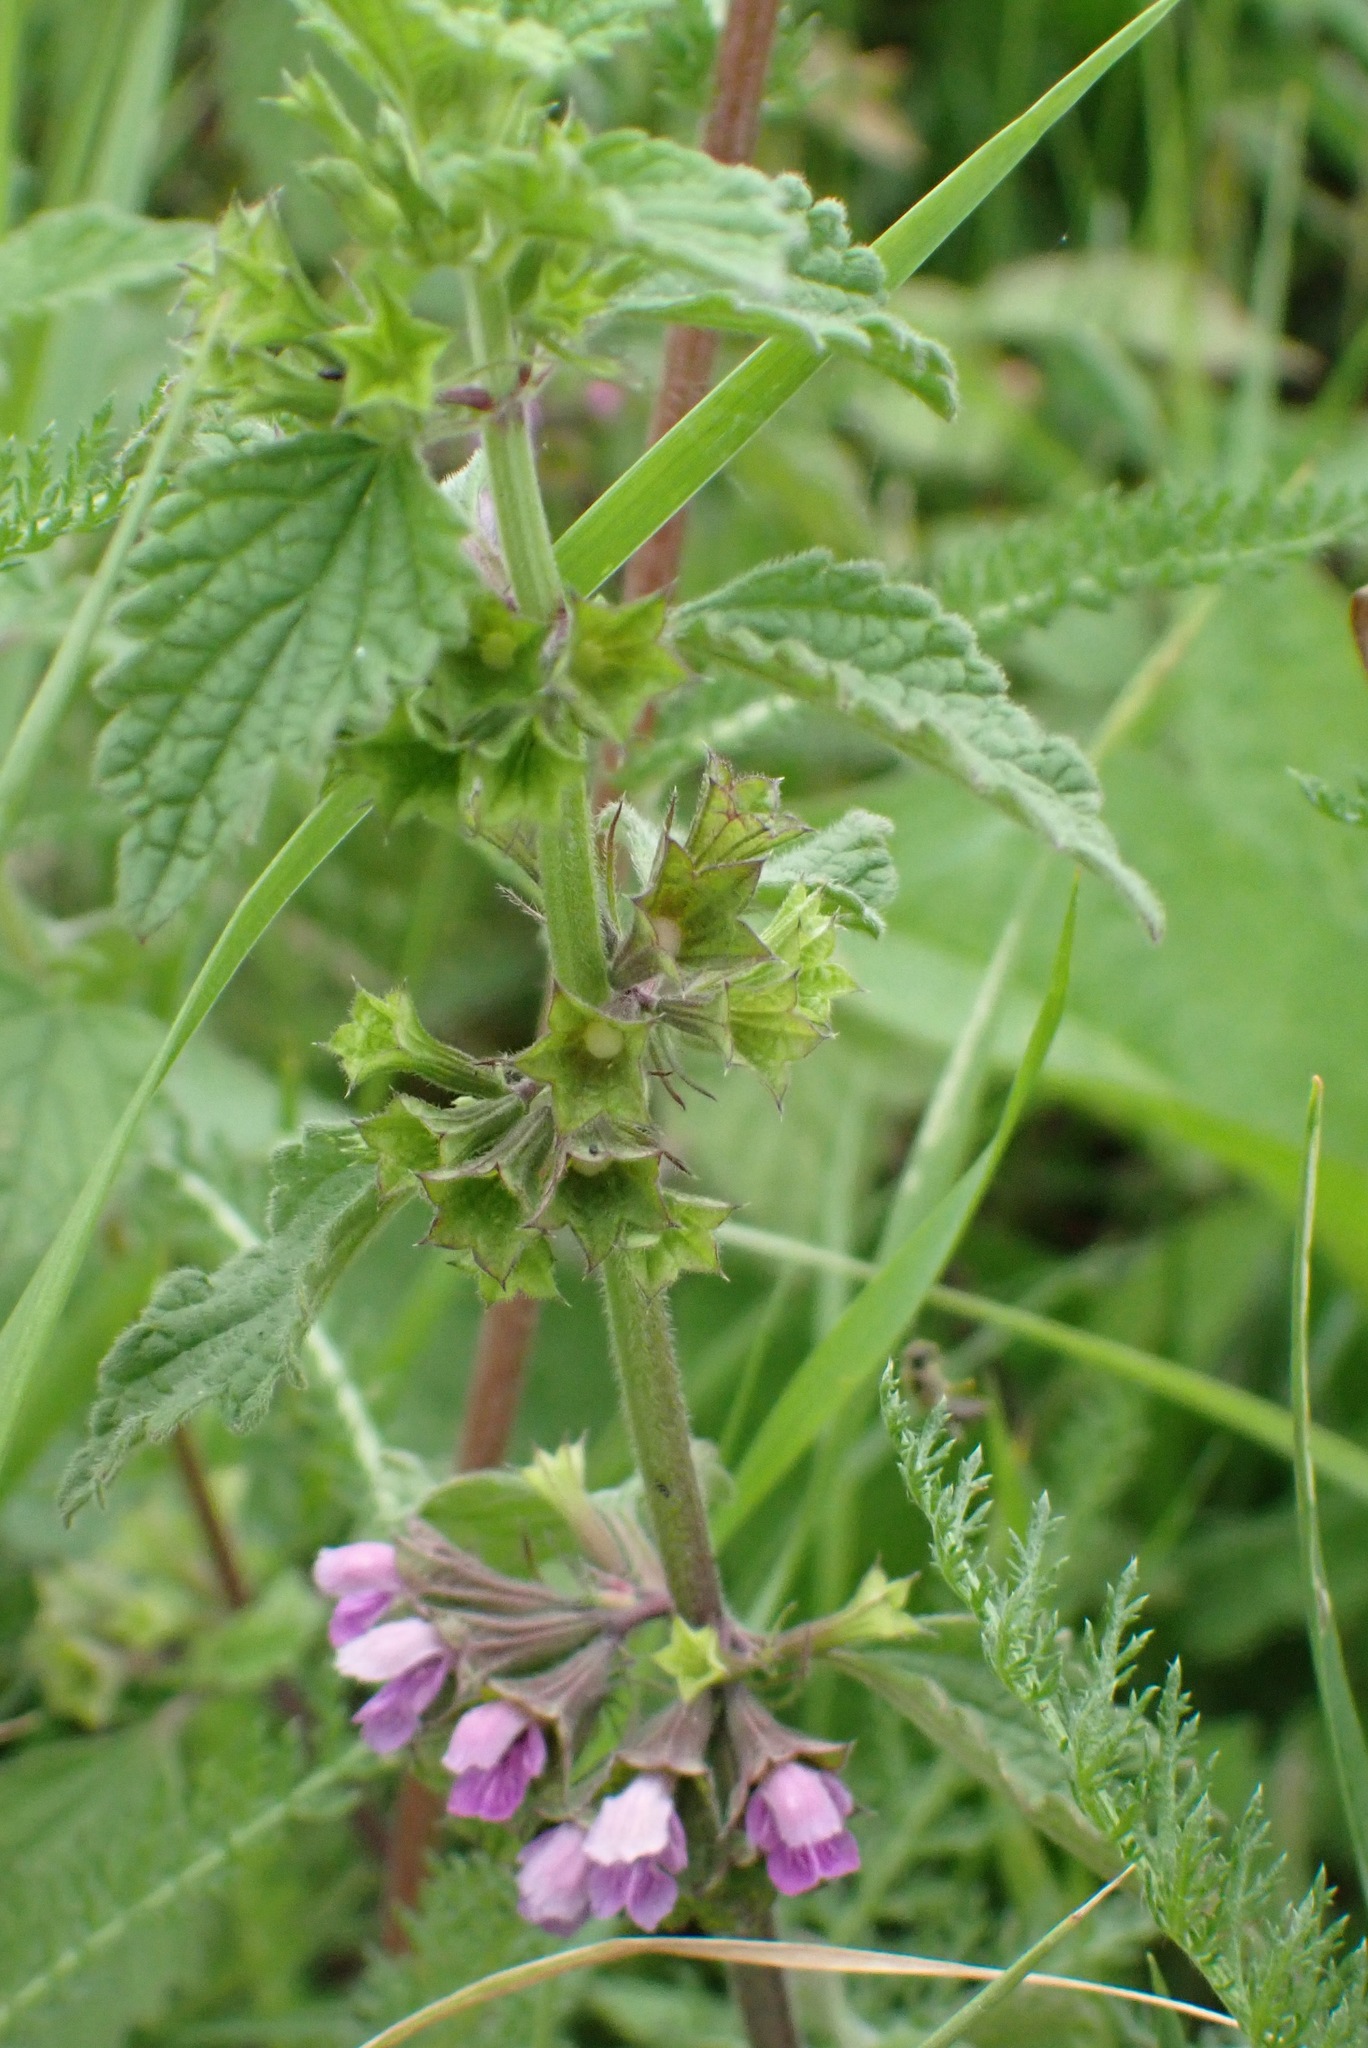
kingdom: Plantae
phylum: Tracheophyta
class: Magnoliopsida
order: Lamiales
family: Lamiaceae
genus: Ballota
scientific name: Ballota nigra
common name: Black horehound
